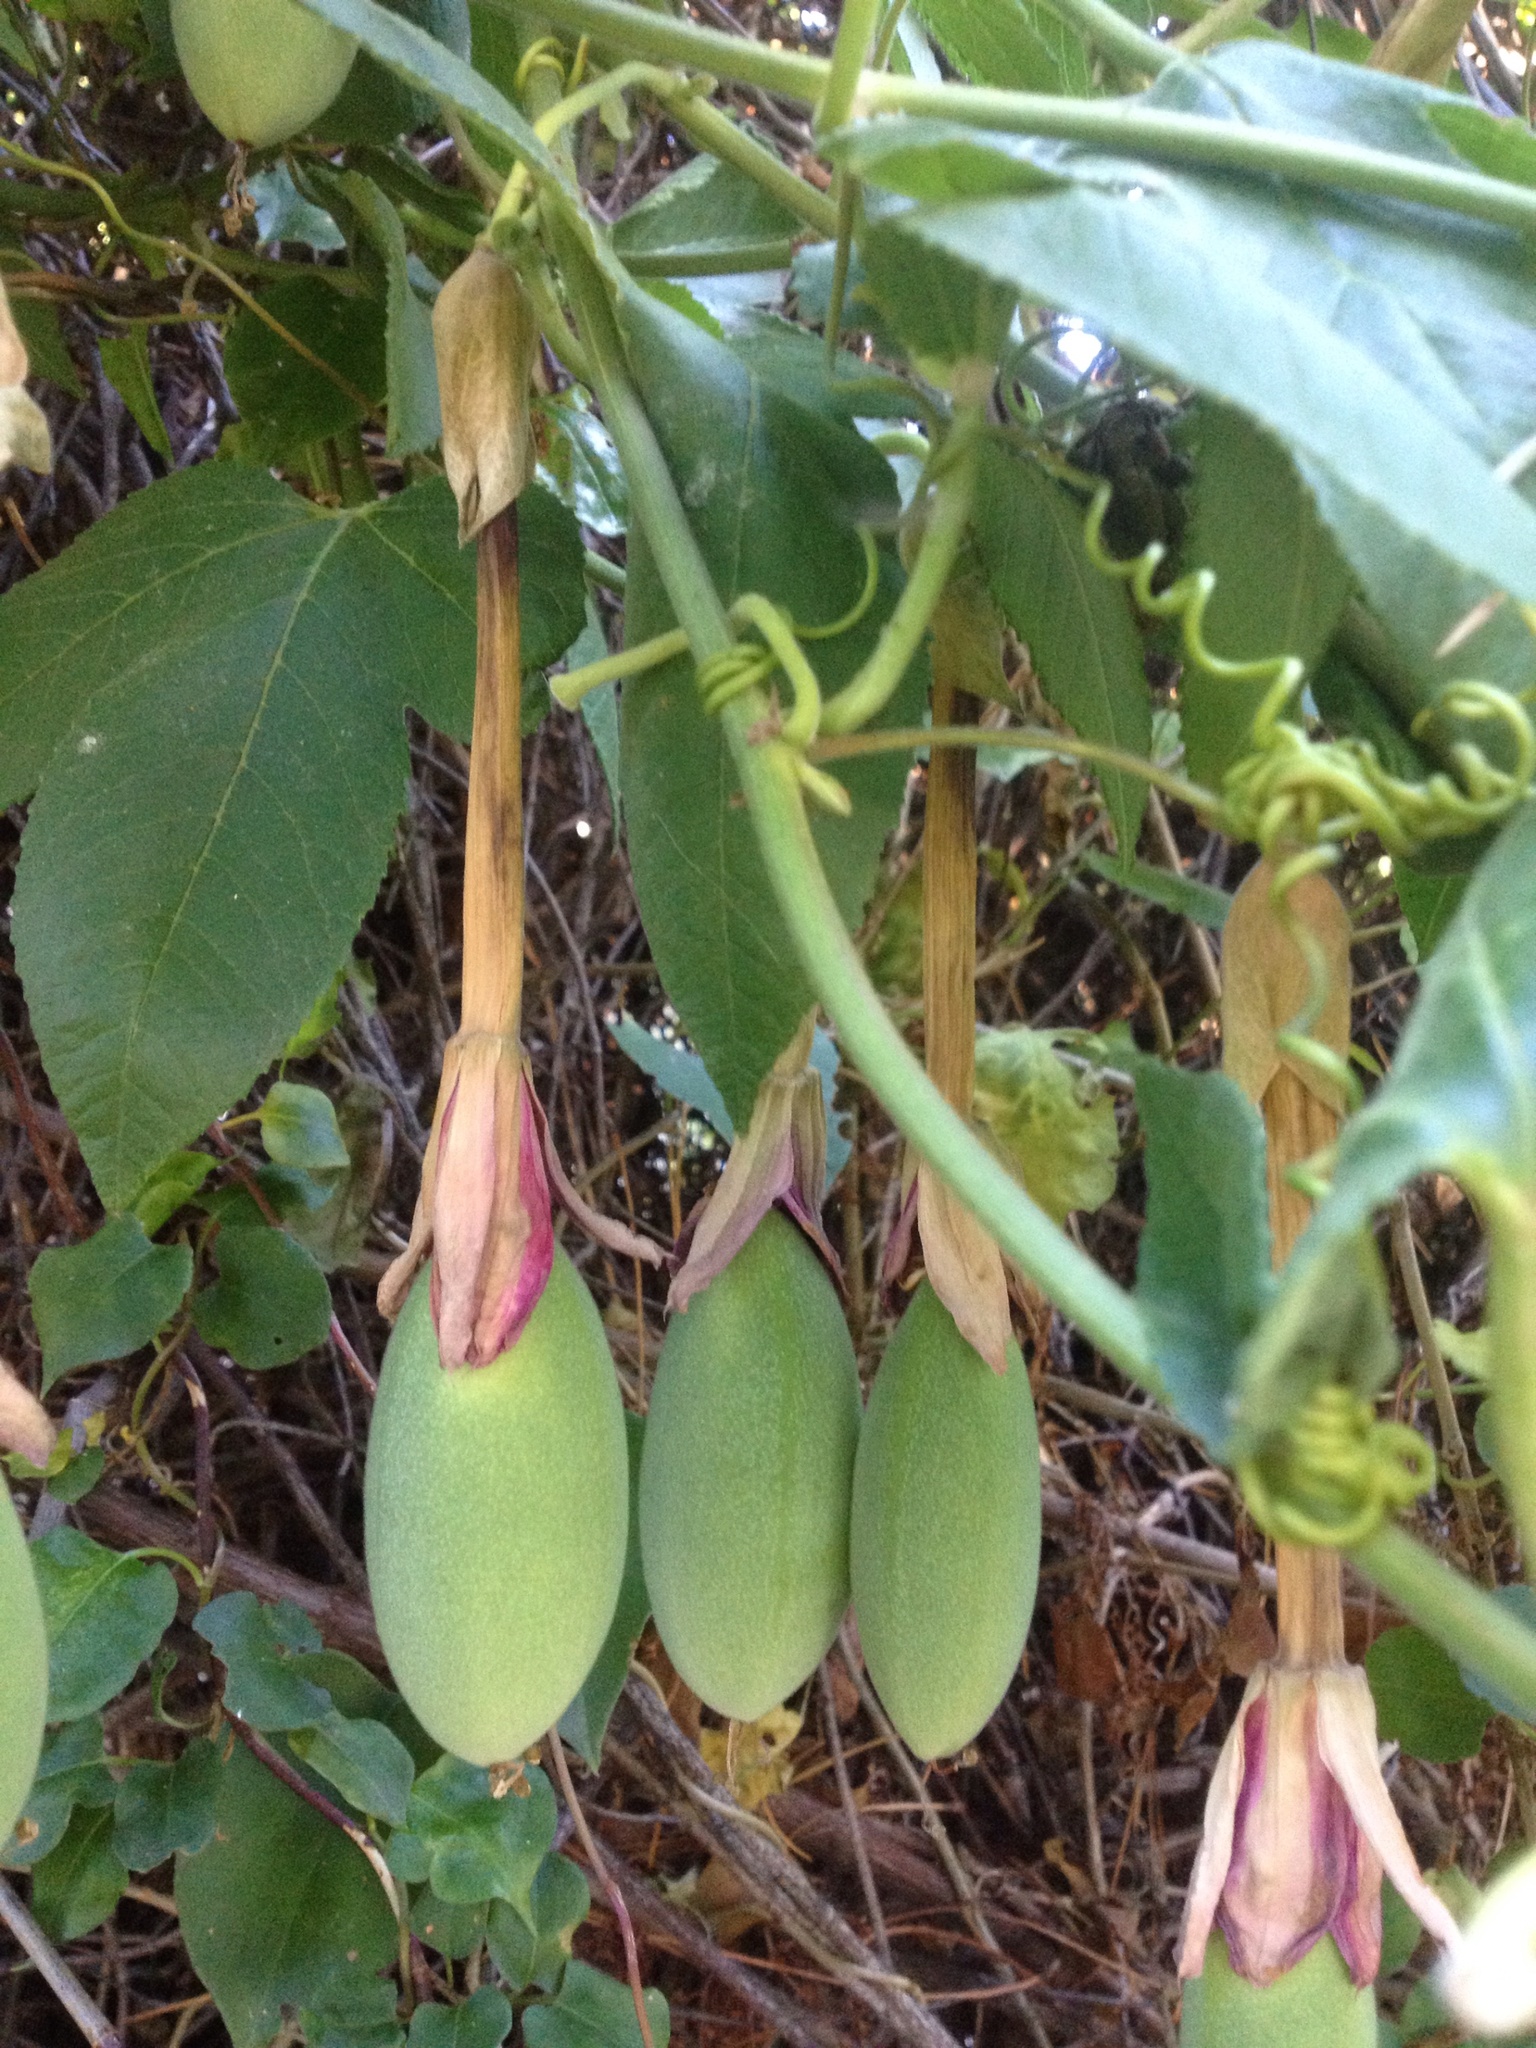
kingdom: Plantae
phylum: Tracheophyta
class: Magnoliopsida
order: Malpighiales
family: Passifloraceae
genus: Passiflora
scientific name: Passiflora tripartita
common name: Banana poka
